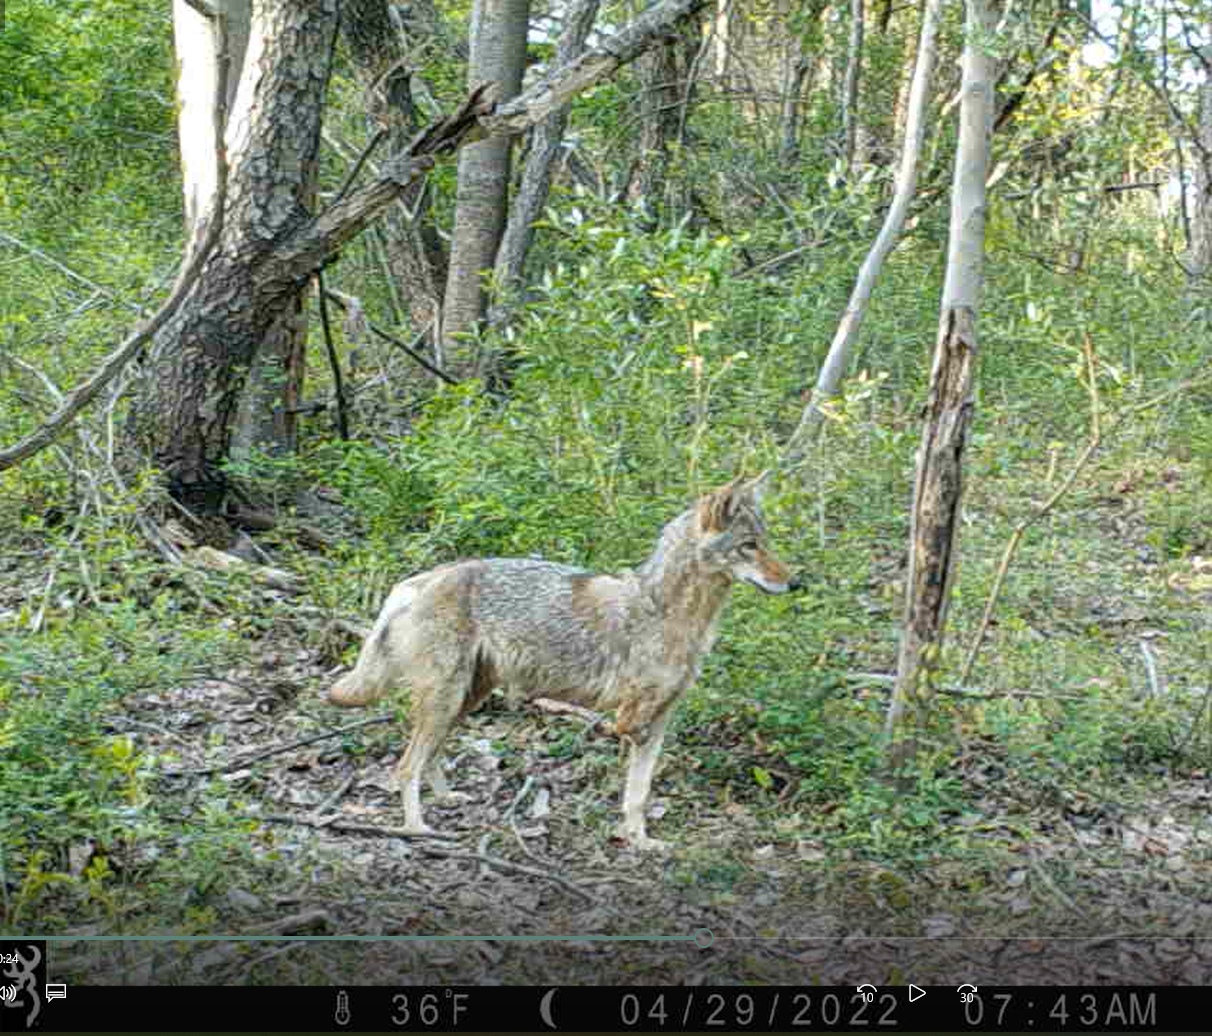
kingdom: Animalia
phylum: Chordata
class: Mammalia
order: Carnivora
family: Canidae
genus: Canis
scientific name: Canis latrans
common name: Coyote
